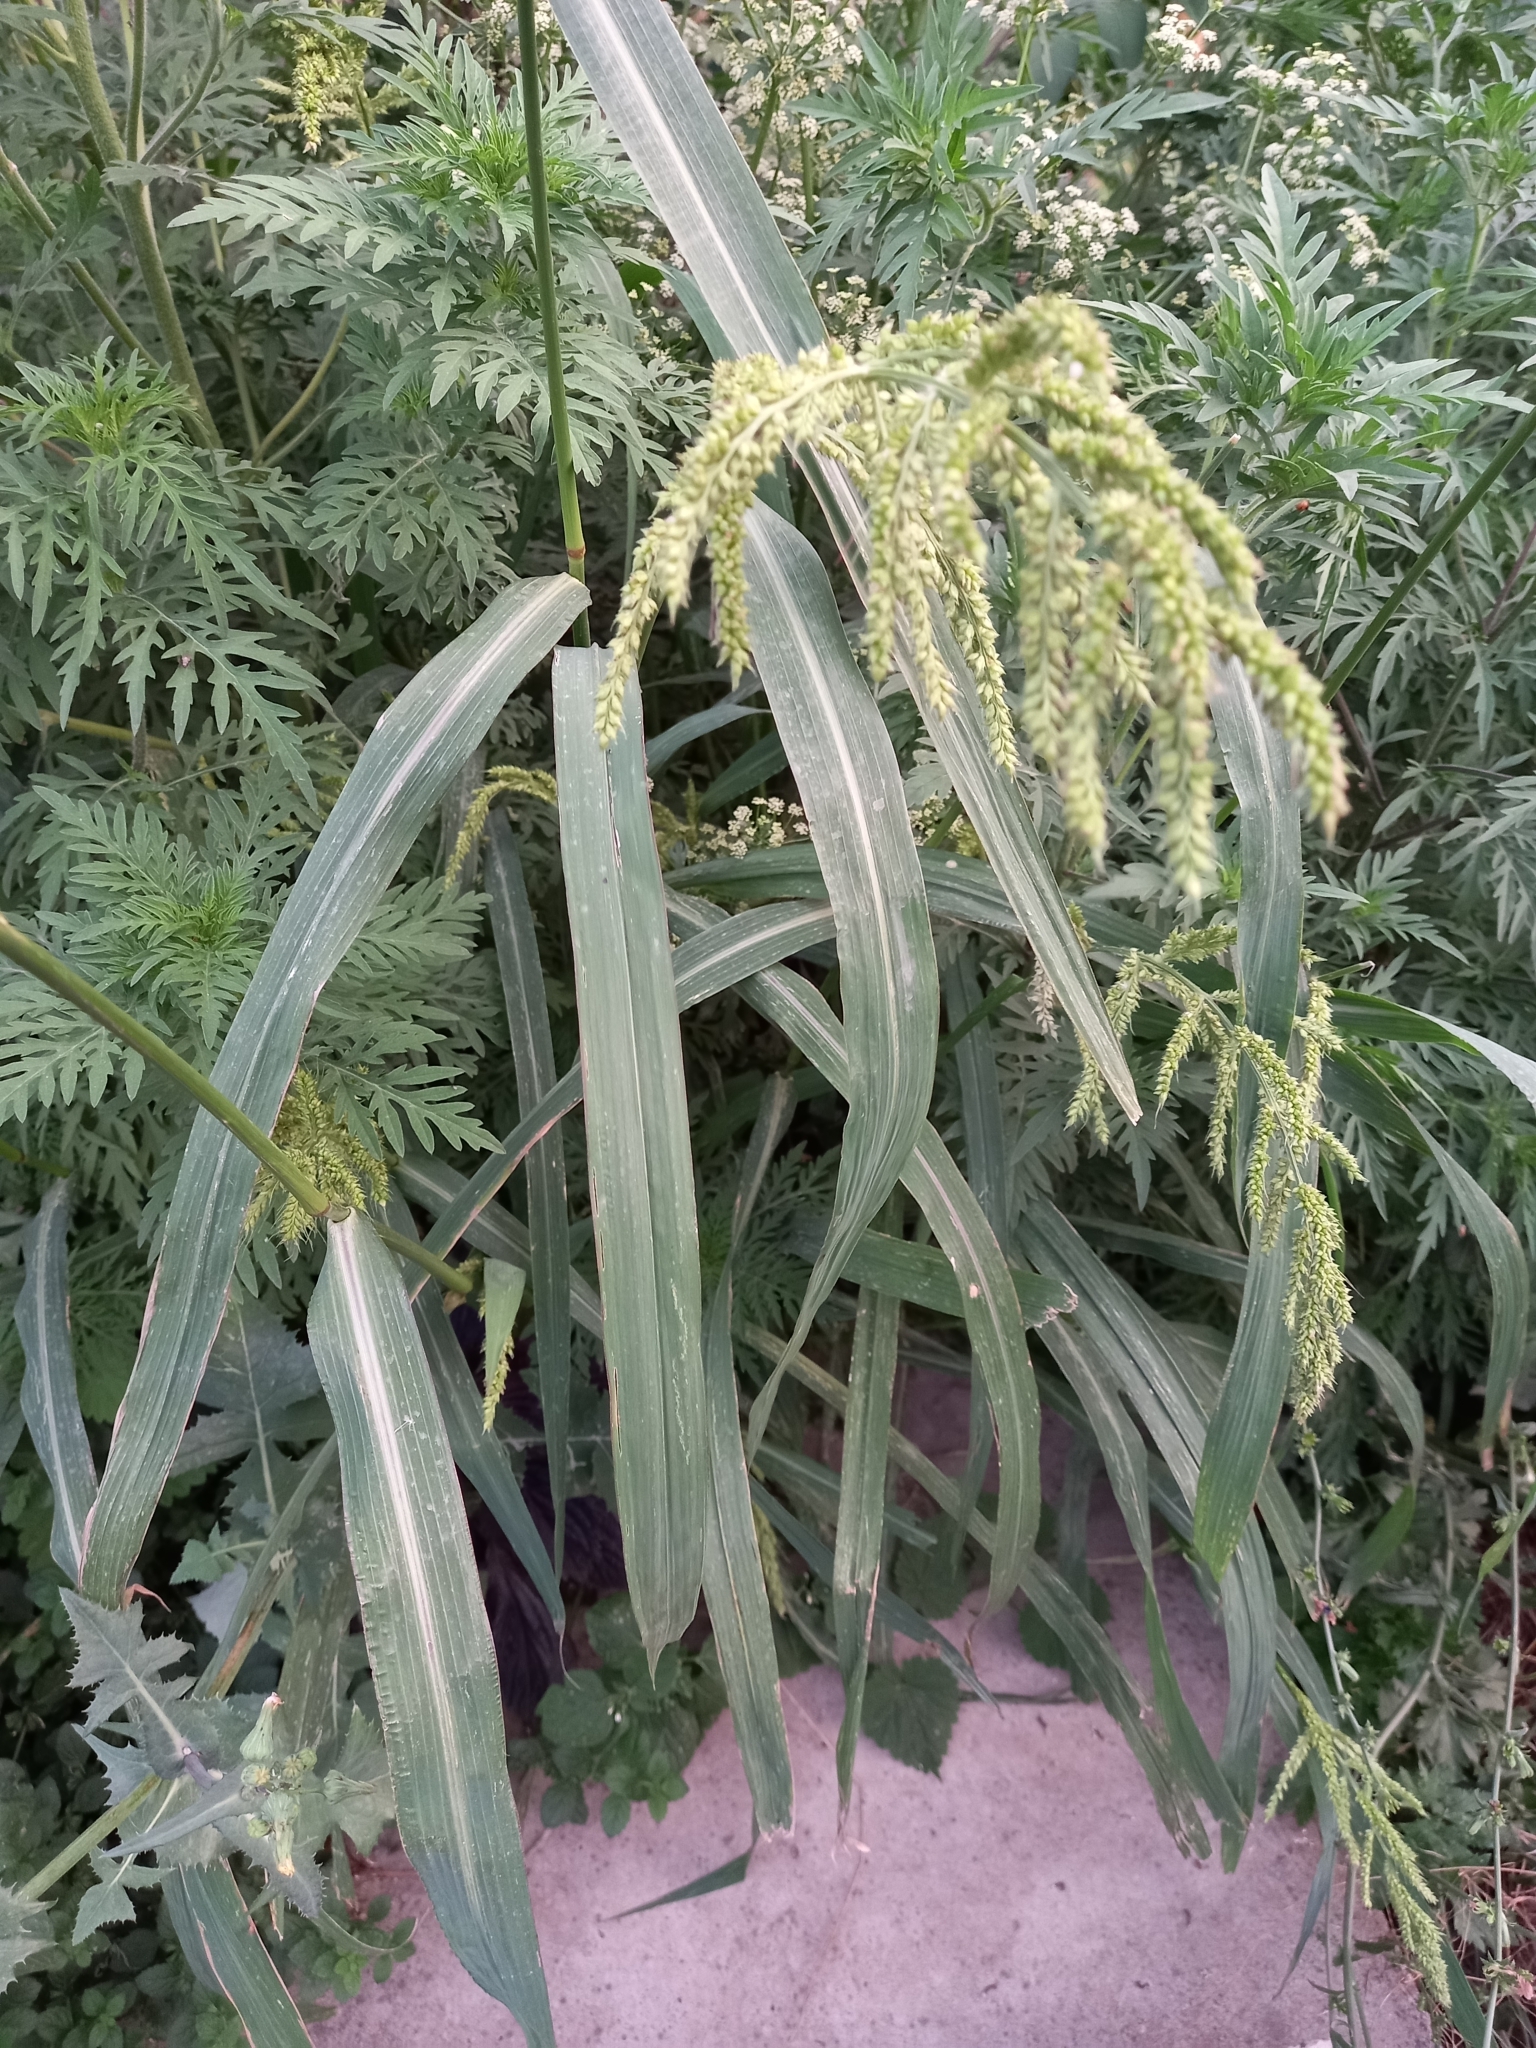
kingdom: Plantae
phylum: Tracheophyta
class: Liliopsida
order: Poales
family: Poaceae
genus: Echinochloa
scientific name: Echinochloa crus-galli
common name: Cockspur
